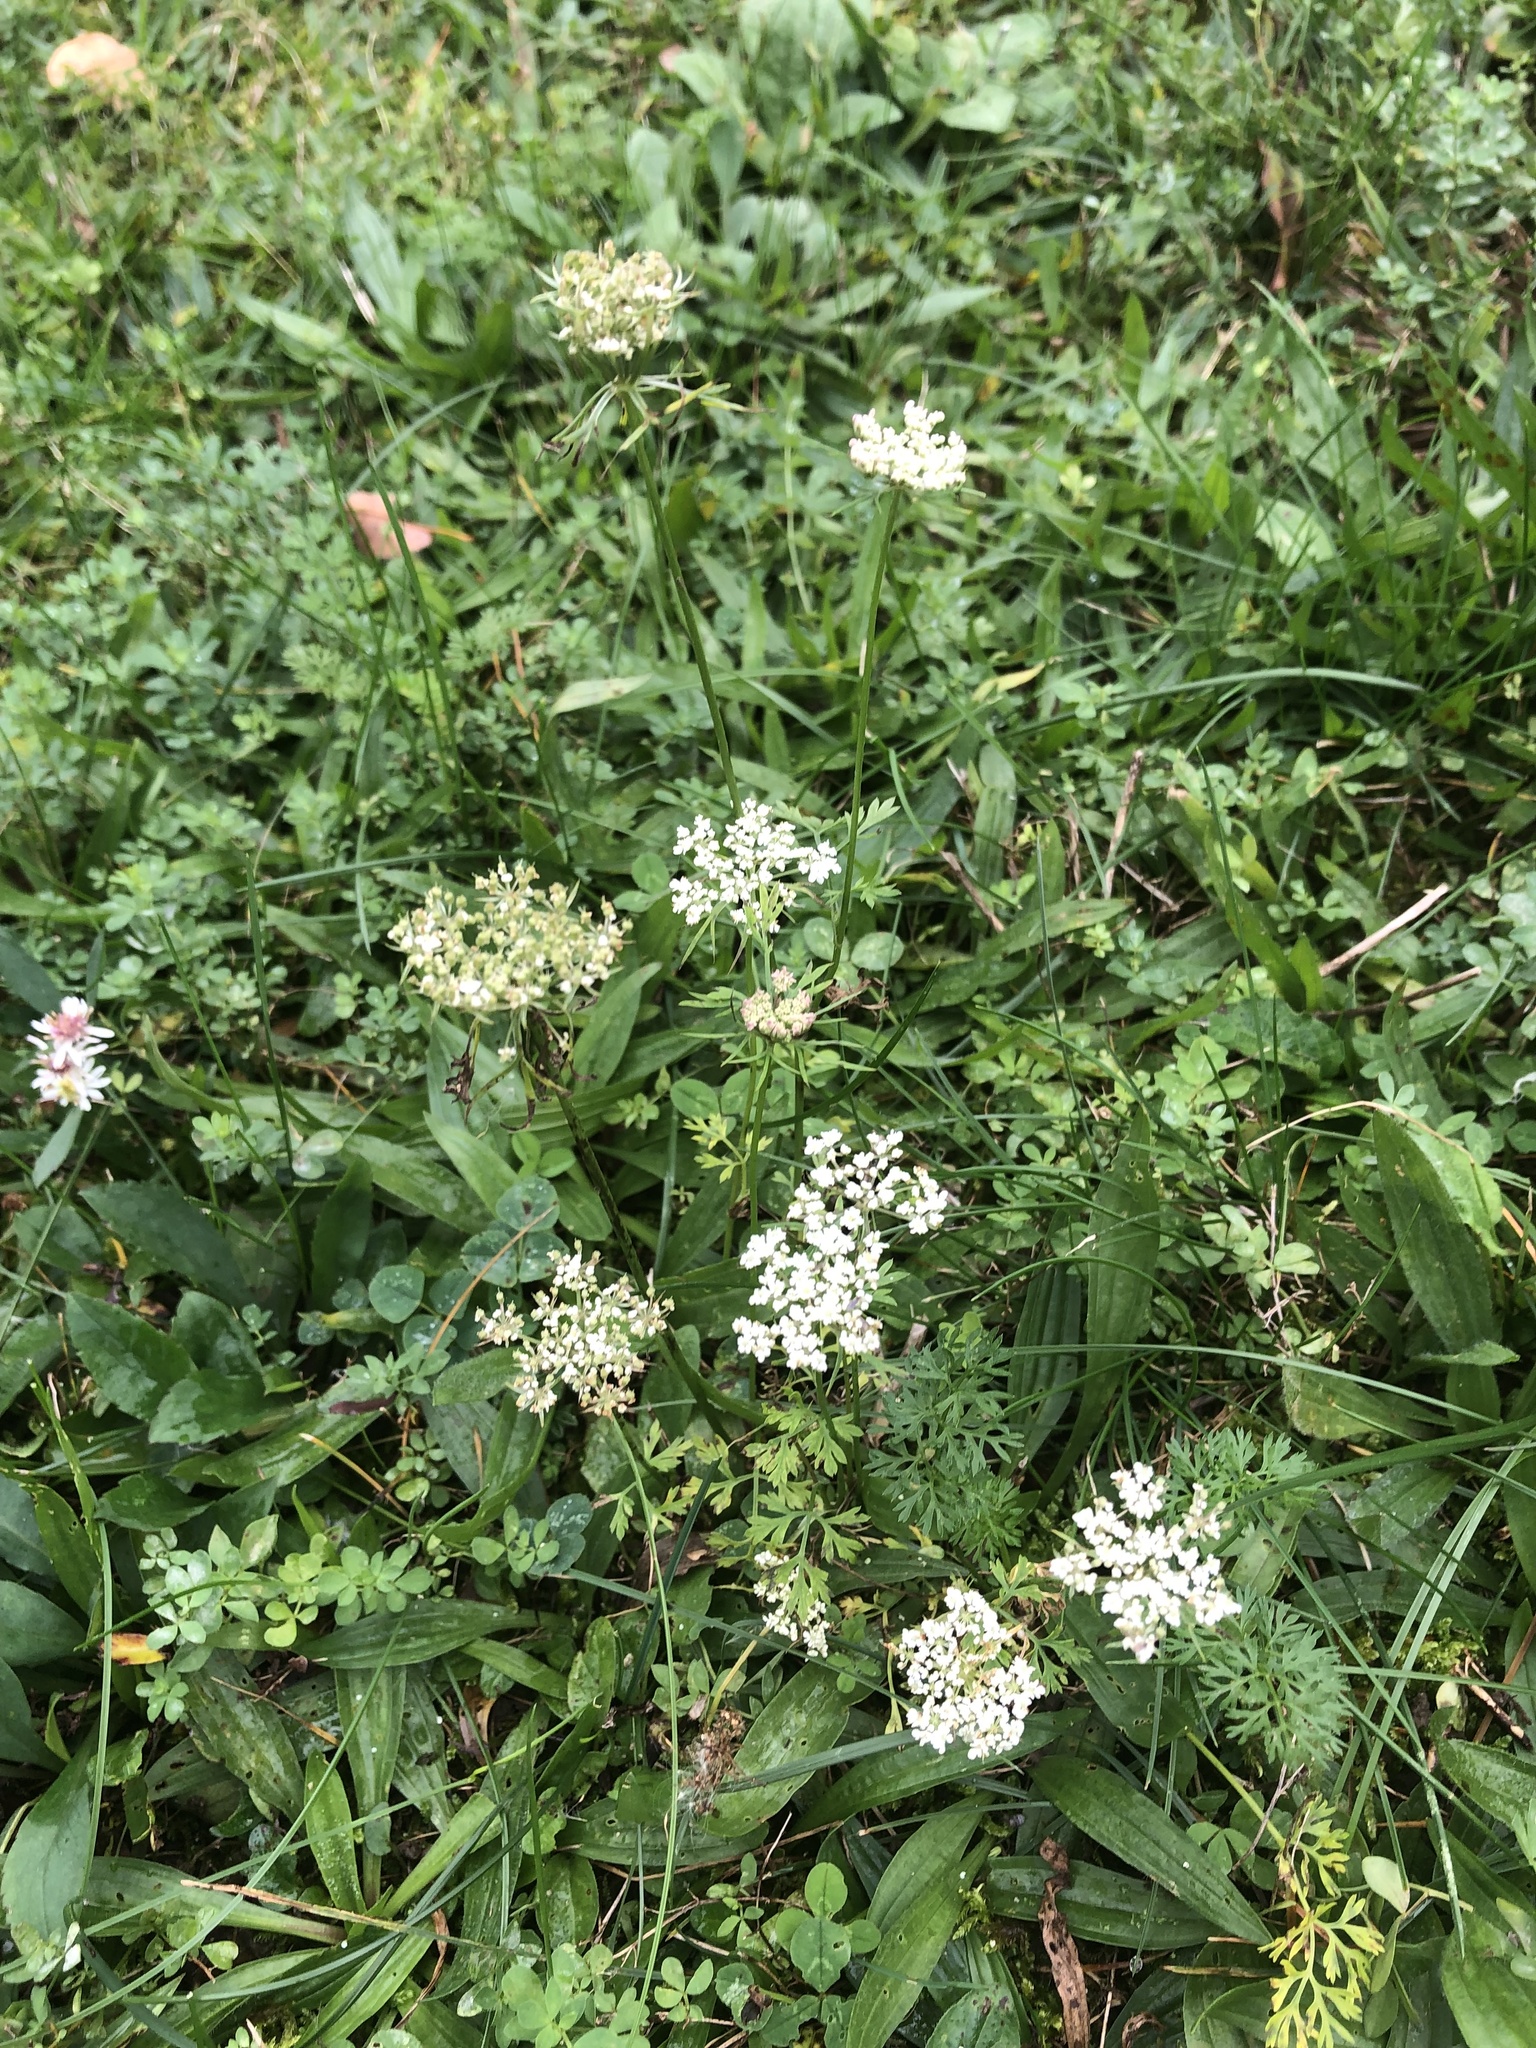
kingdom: Plantae
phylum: Tracheophyta
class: Magnoliopsida
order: Apiales
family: Apiaceae
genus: Daucus
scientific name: Daucus carota
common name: Wild carrot
